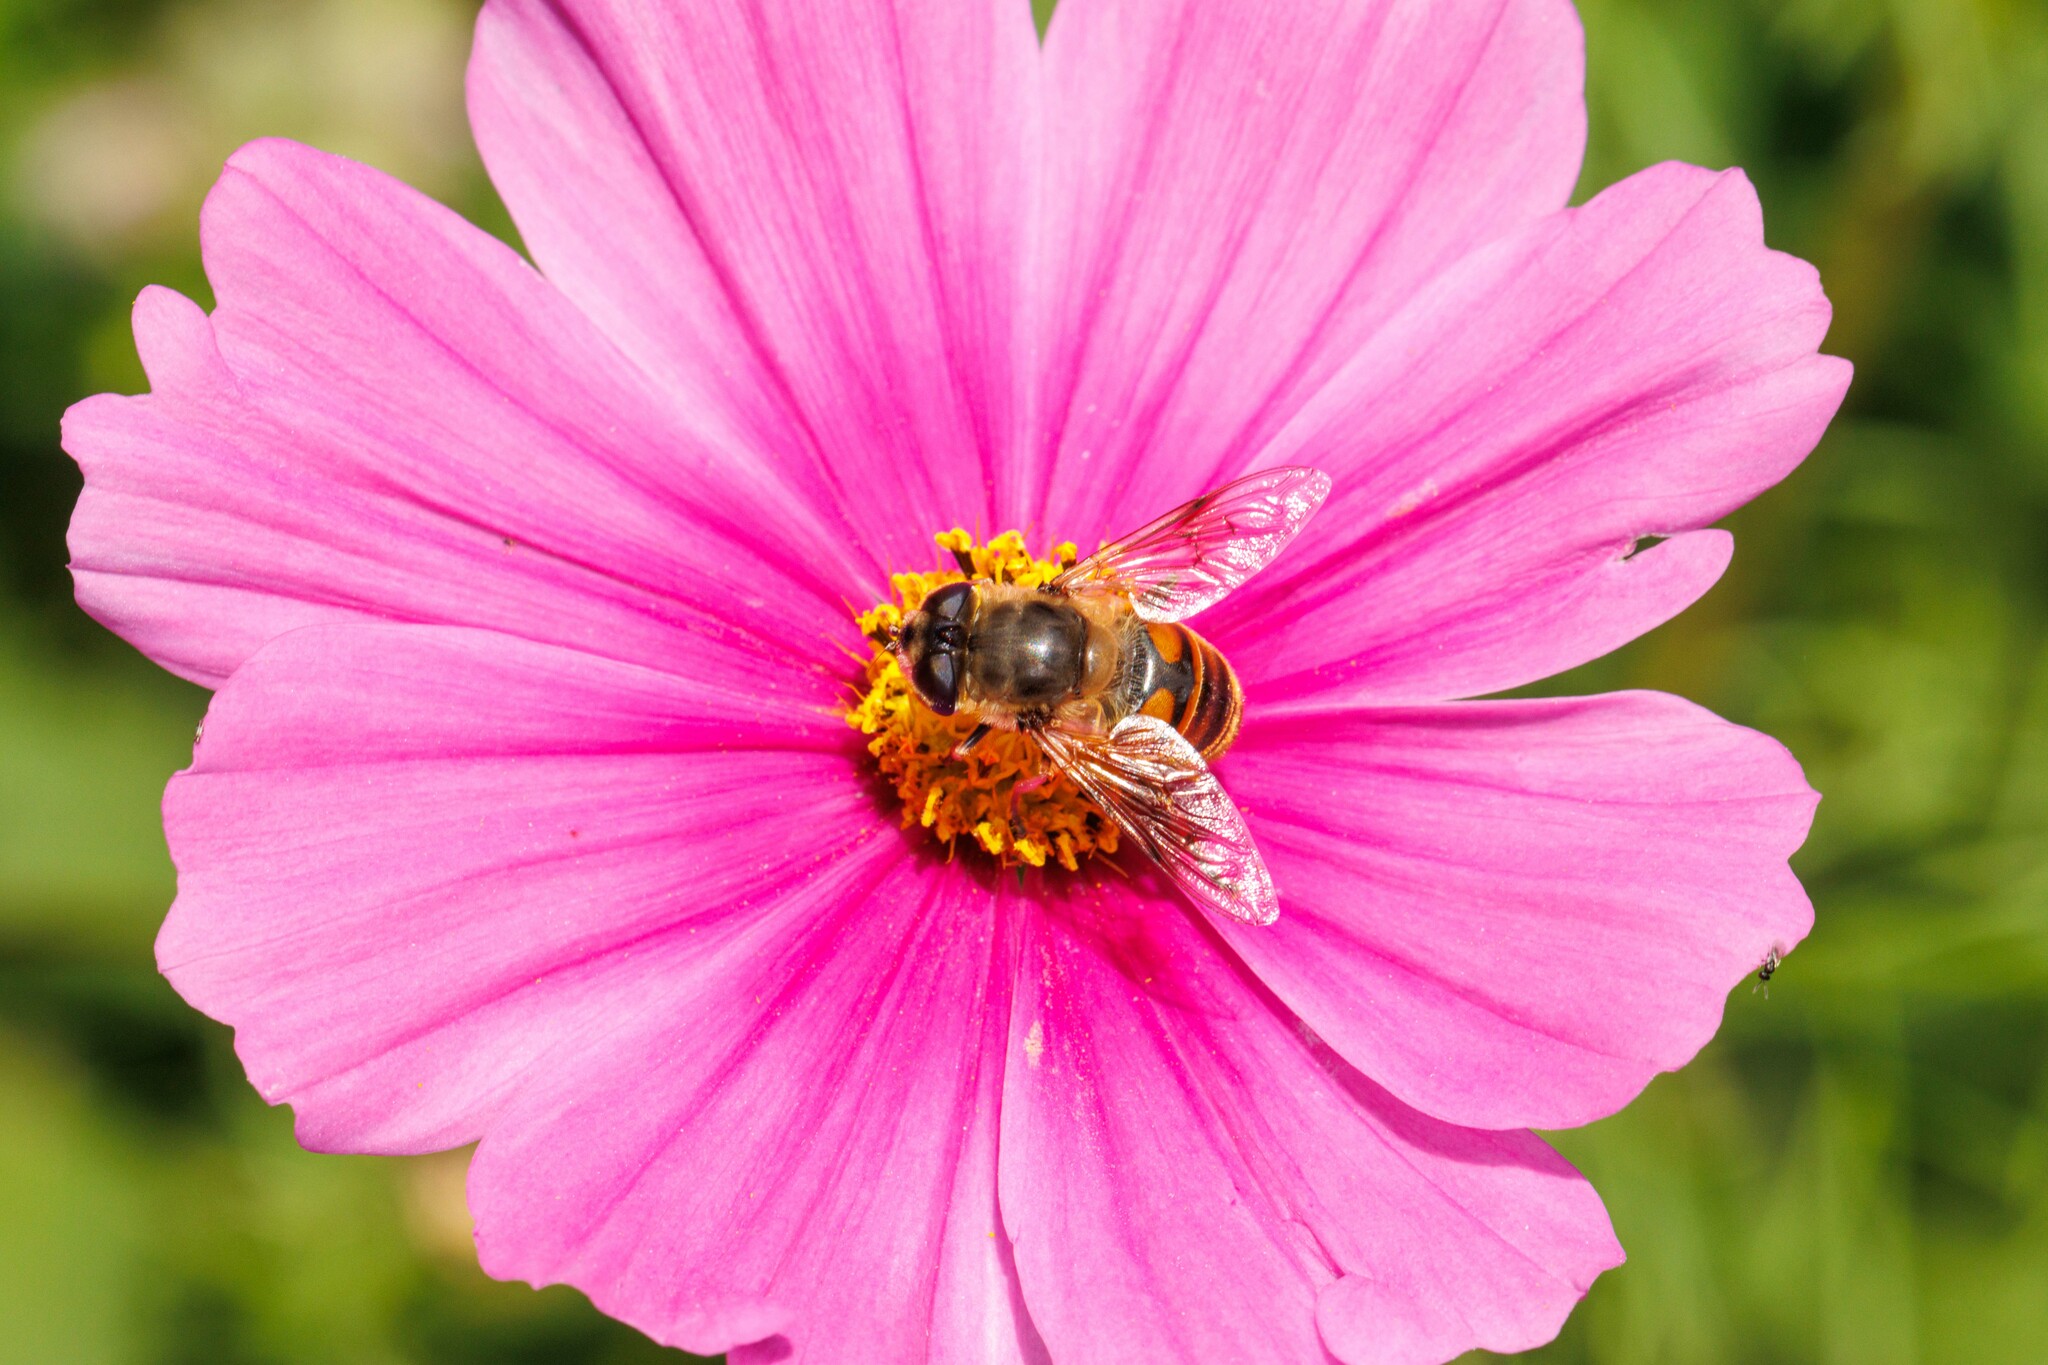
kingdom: Animalia
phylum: Arthropoda
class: Insecta
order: Diptera
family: Syrphidae
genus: Eristalis
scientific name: Eristalis tenax
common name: Drone fly
